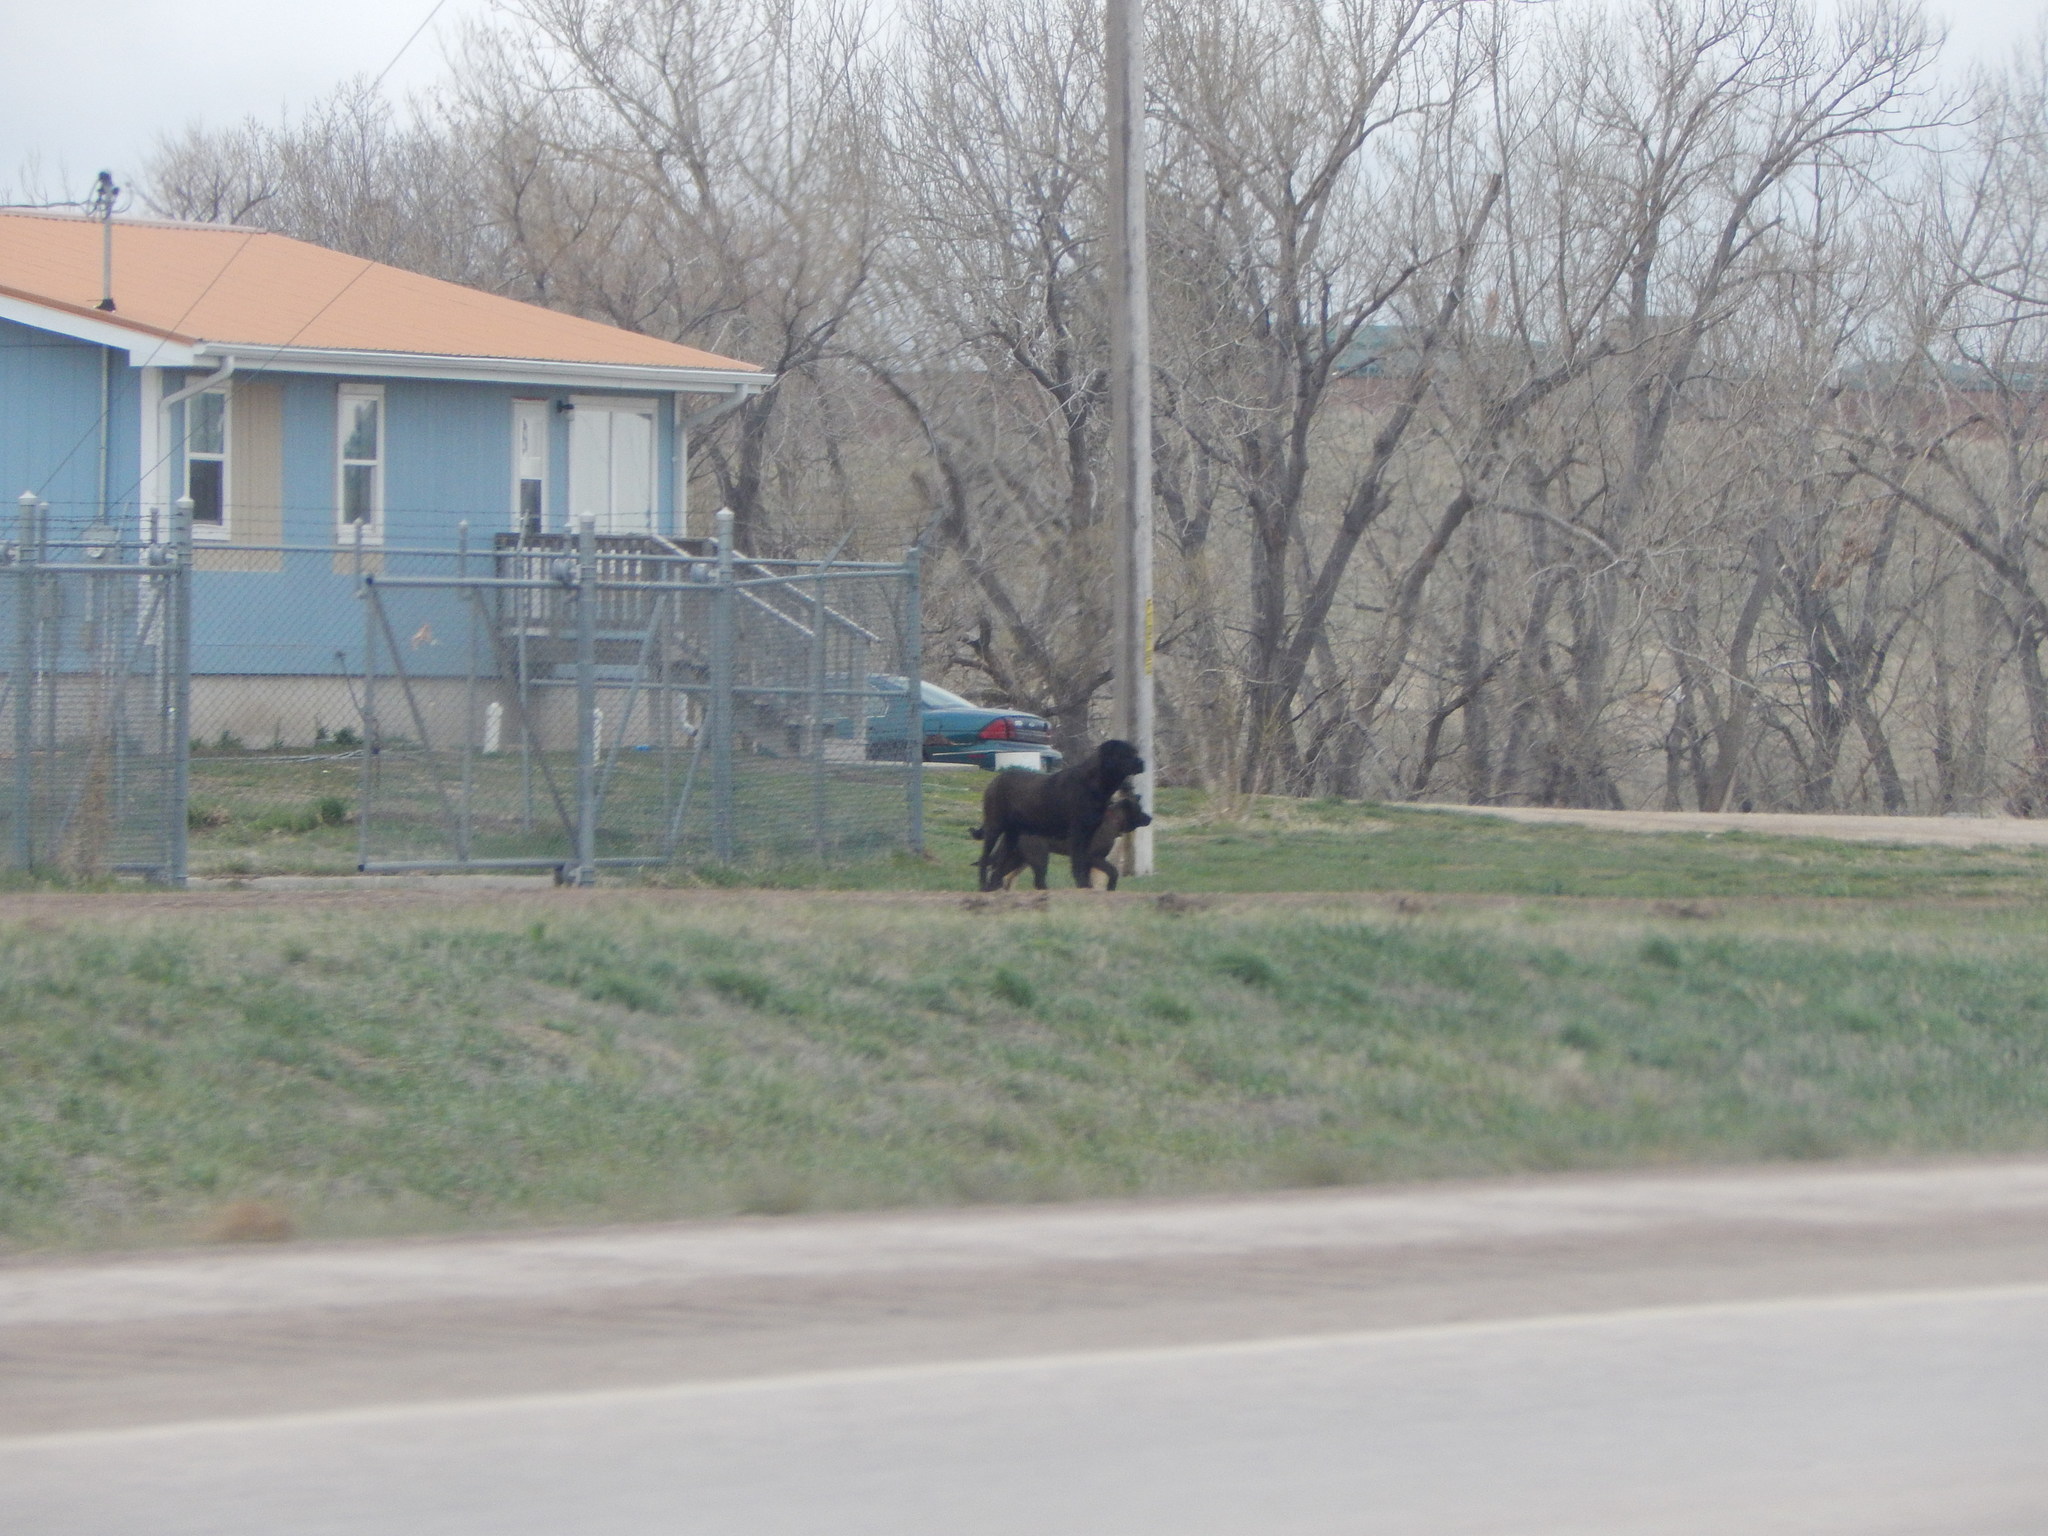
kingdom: Animalia
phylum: Chordata
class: Mammalia
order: Carnivora
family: Canidae
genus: Canis
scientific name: Canis lupus
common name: Gray wolf
